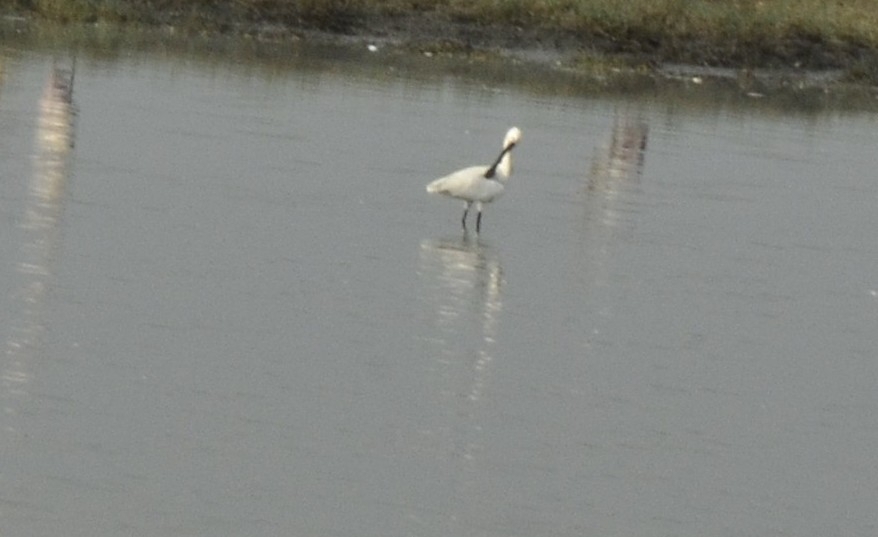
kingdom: Animalia
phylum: Chordata
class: Aves
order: Pelecaniformes
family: Threskiornithidae
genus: Platalea
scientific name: Platalea leucorodia
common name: Eurasian spoonbill
